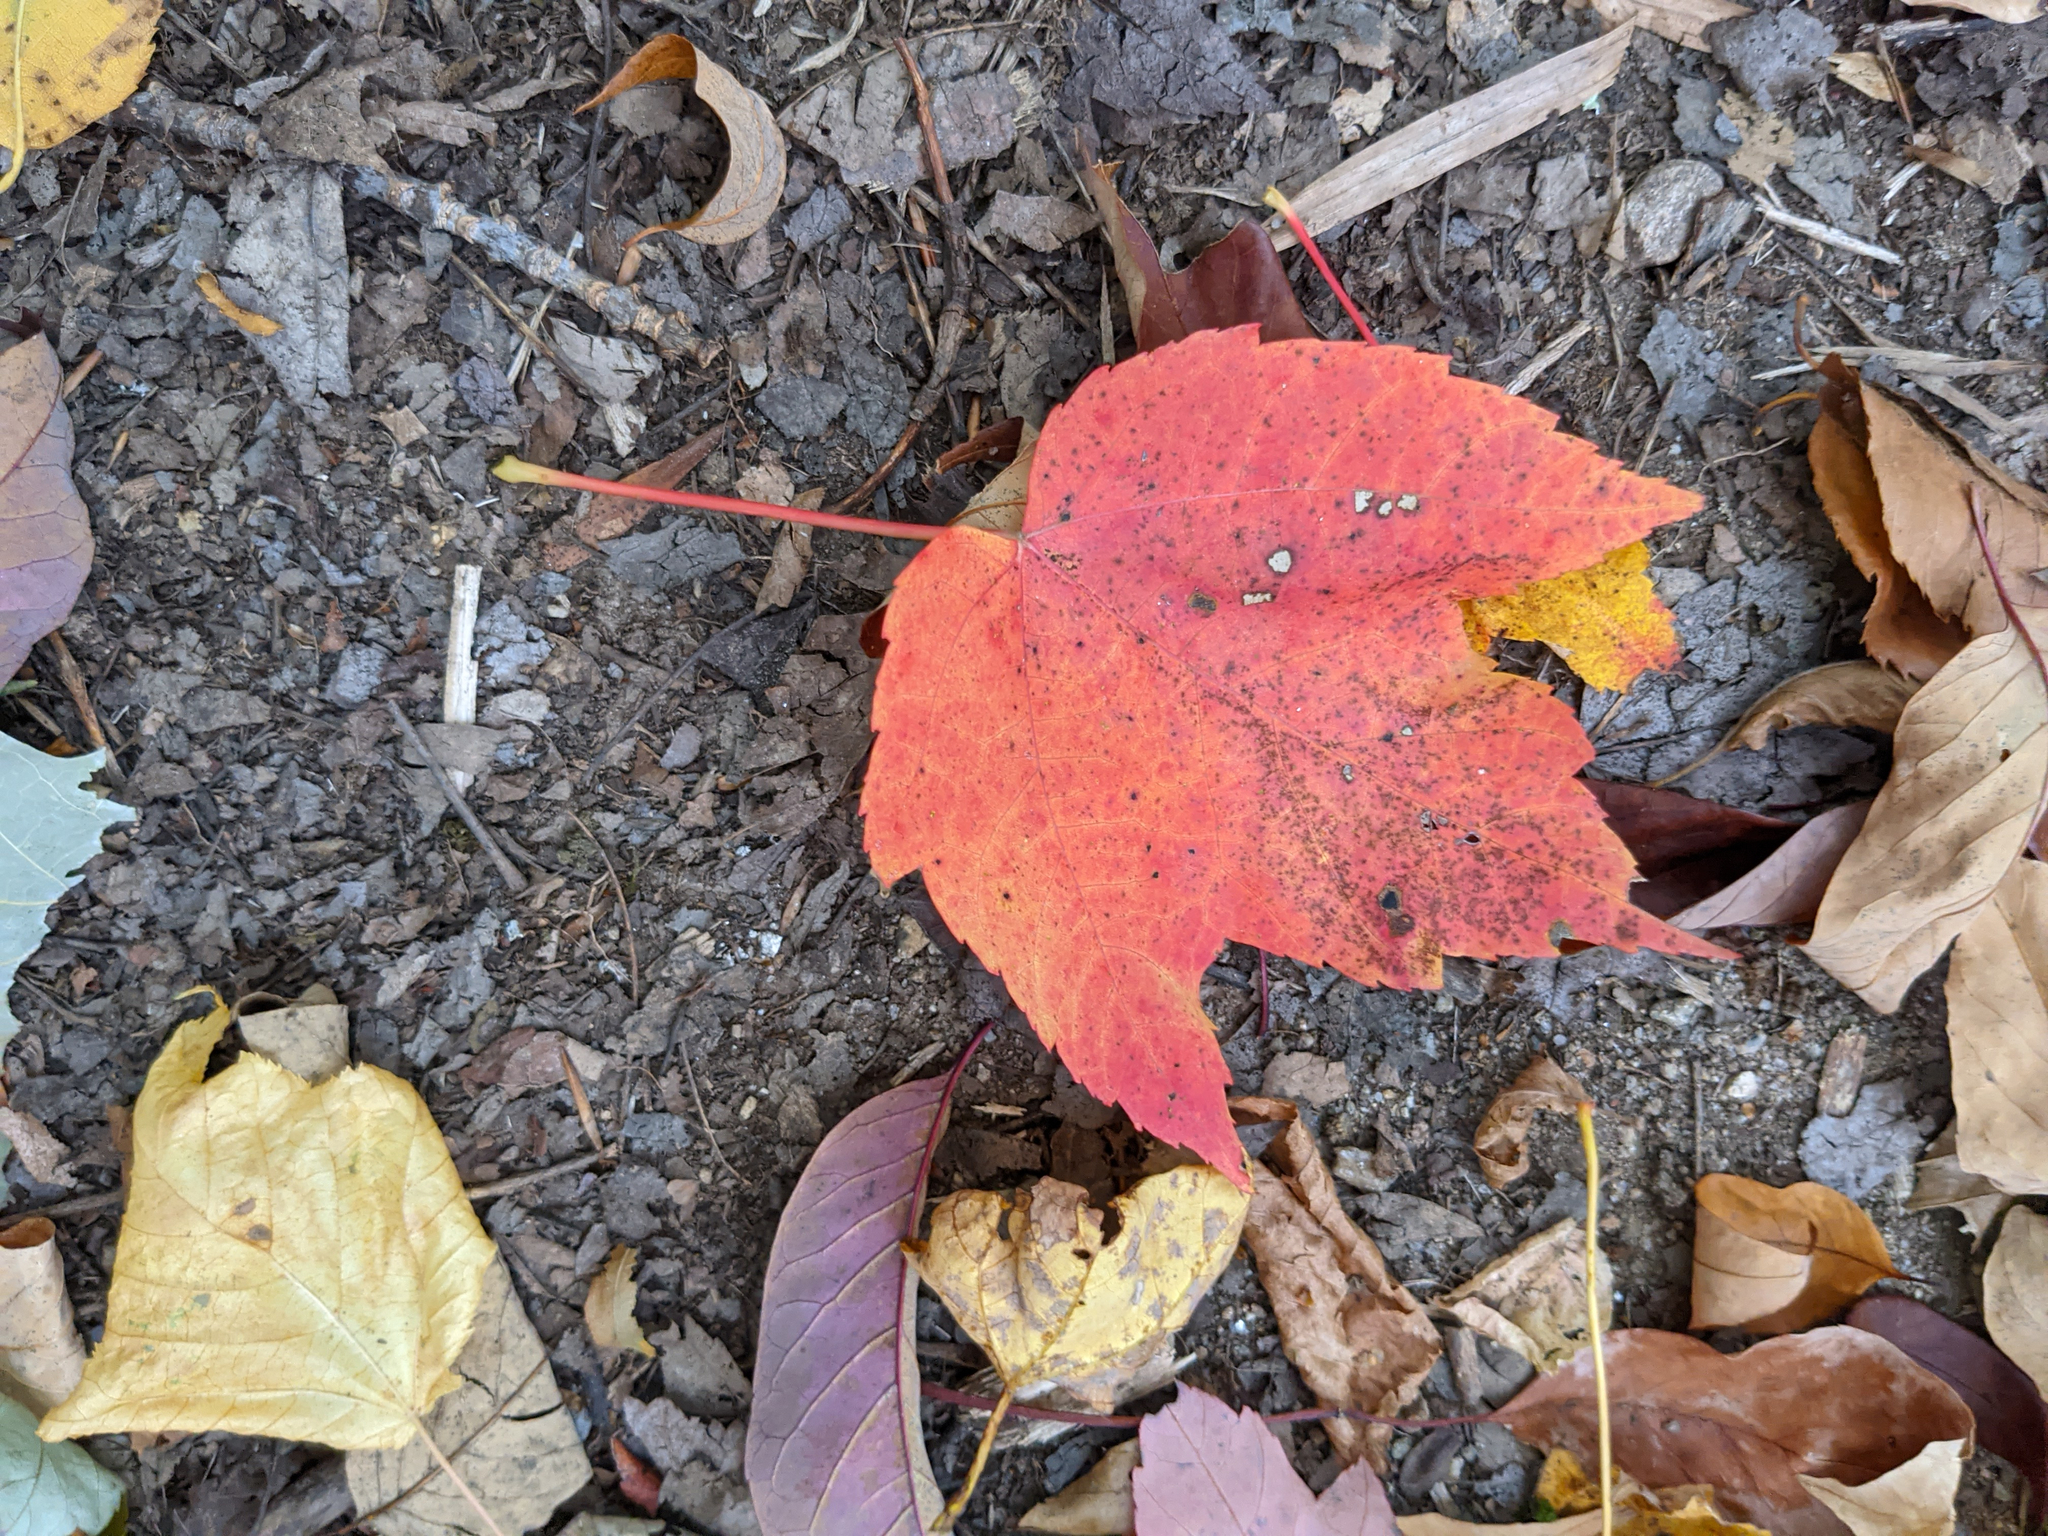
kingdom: Plantae
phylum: Tracheophyta
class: Magnoliopsida
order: Sapindales
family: Sapindaceae
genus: Acer
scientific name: Acer rubrum
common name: Red maple
